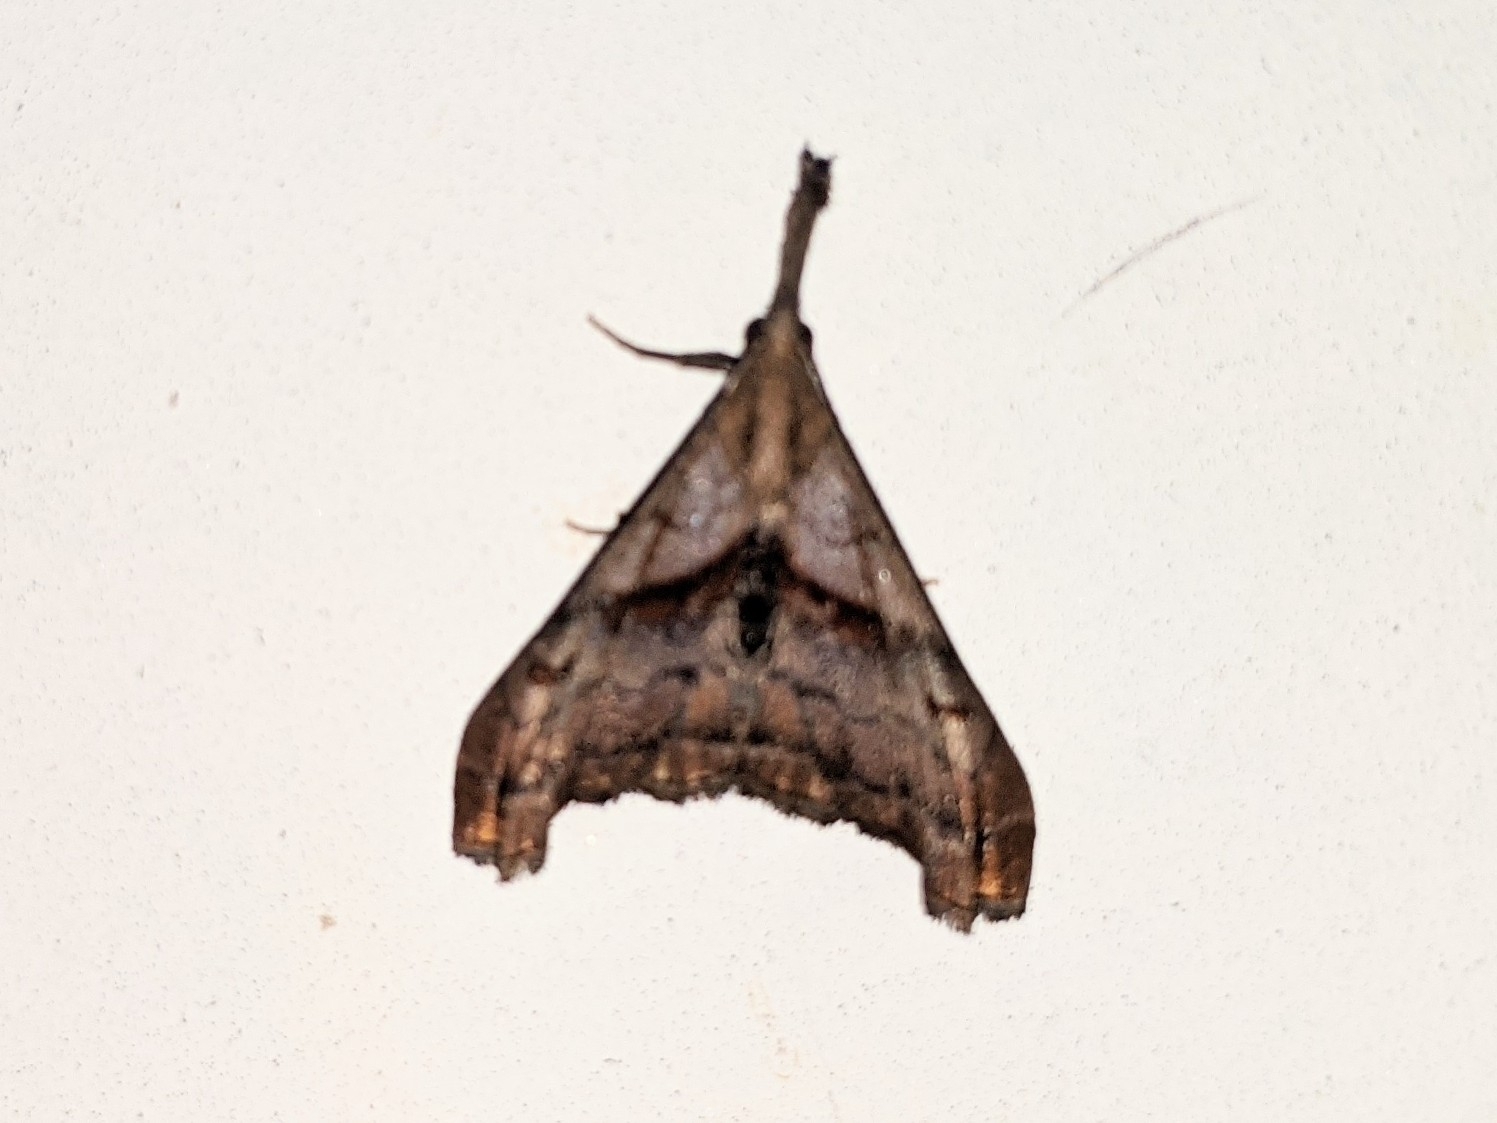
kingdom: Animalia
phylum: Arthropoda
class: Insecta
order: Lepidoptera
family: Erebidae
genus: Palthis
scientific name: Palthis angulalis
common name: Dark-spotted palthis moth
